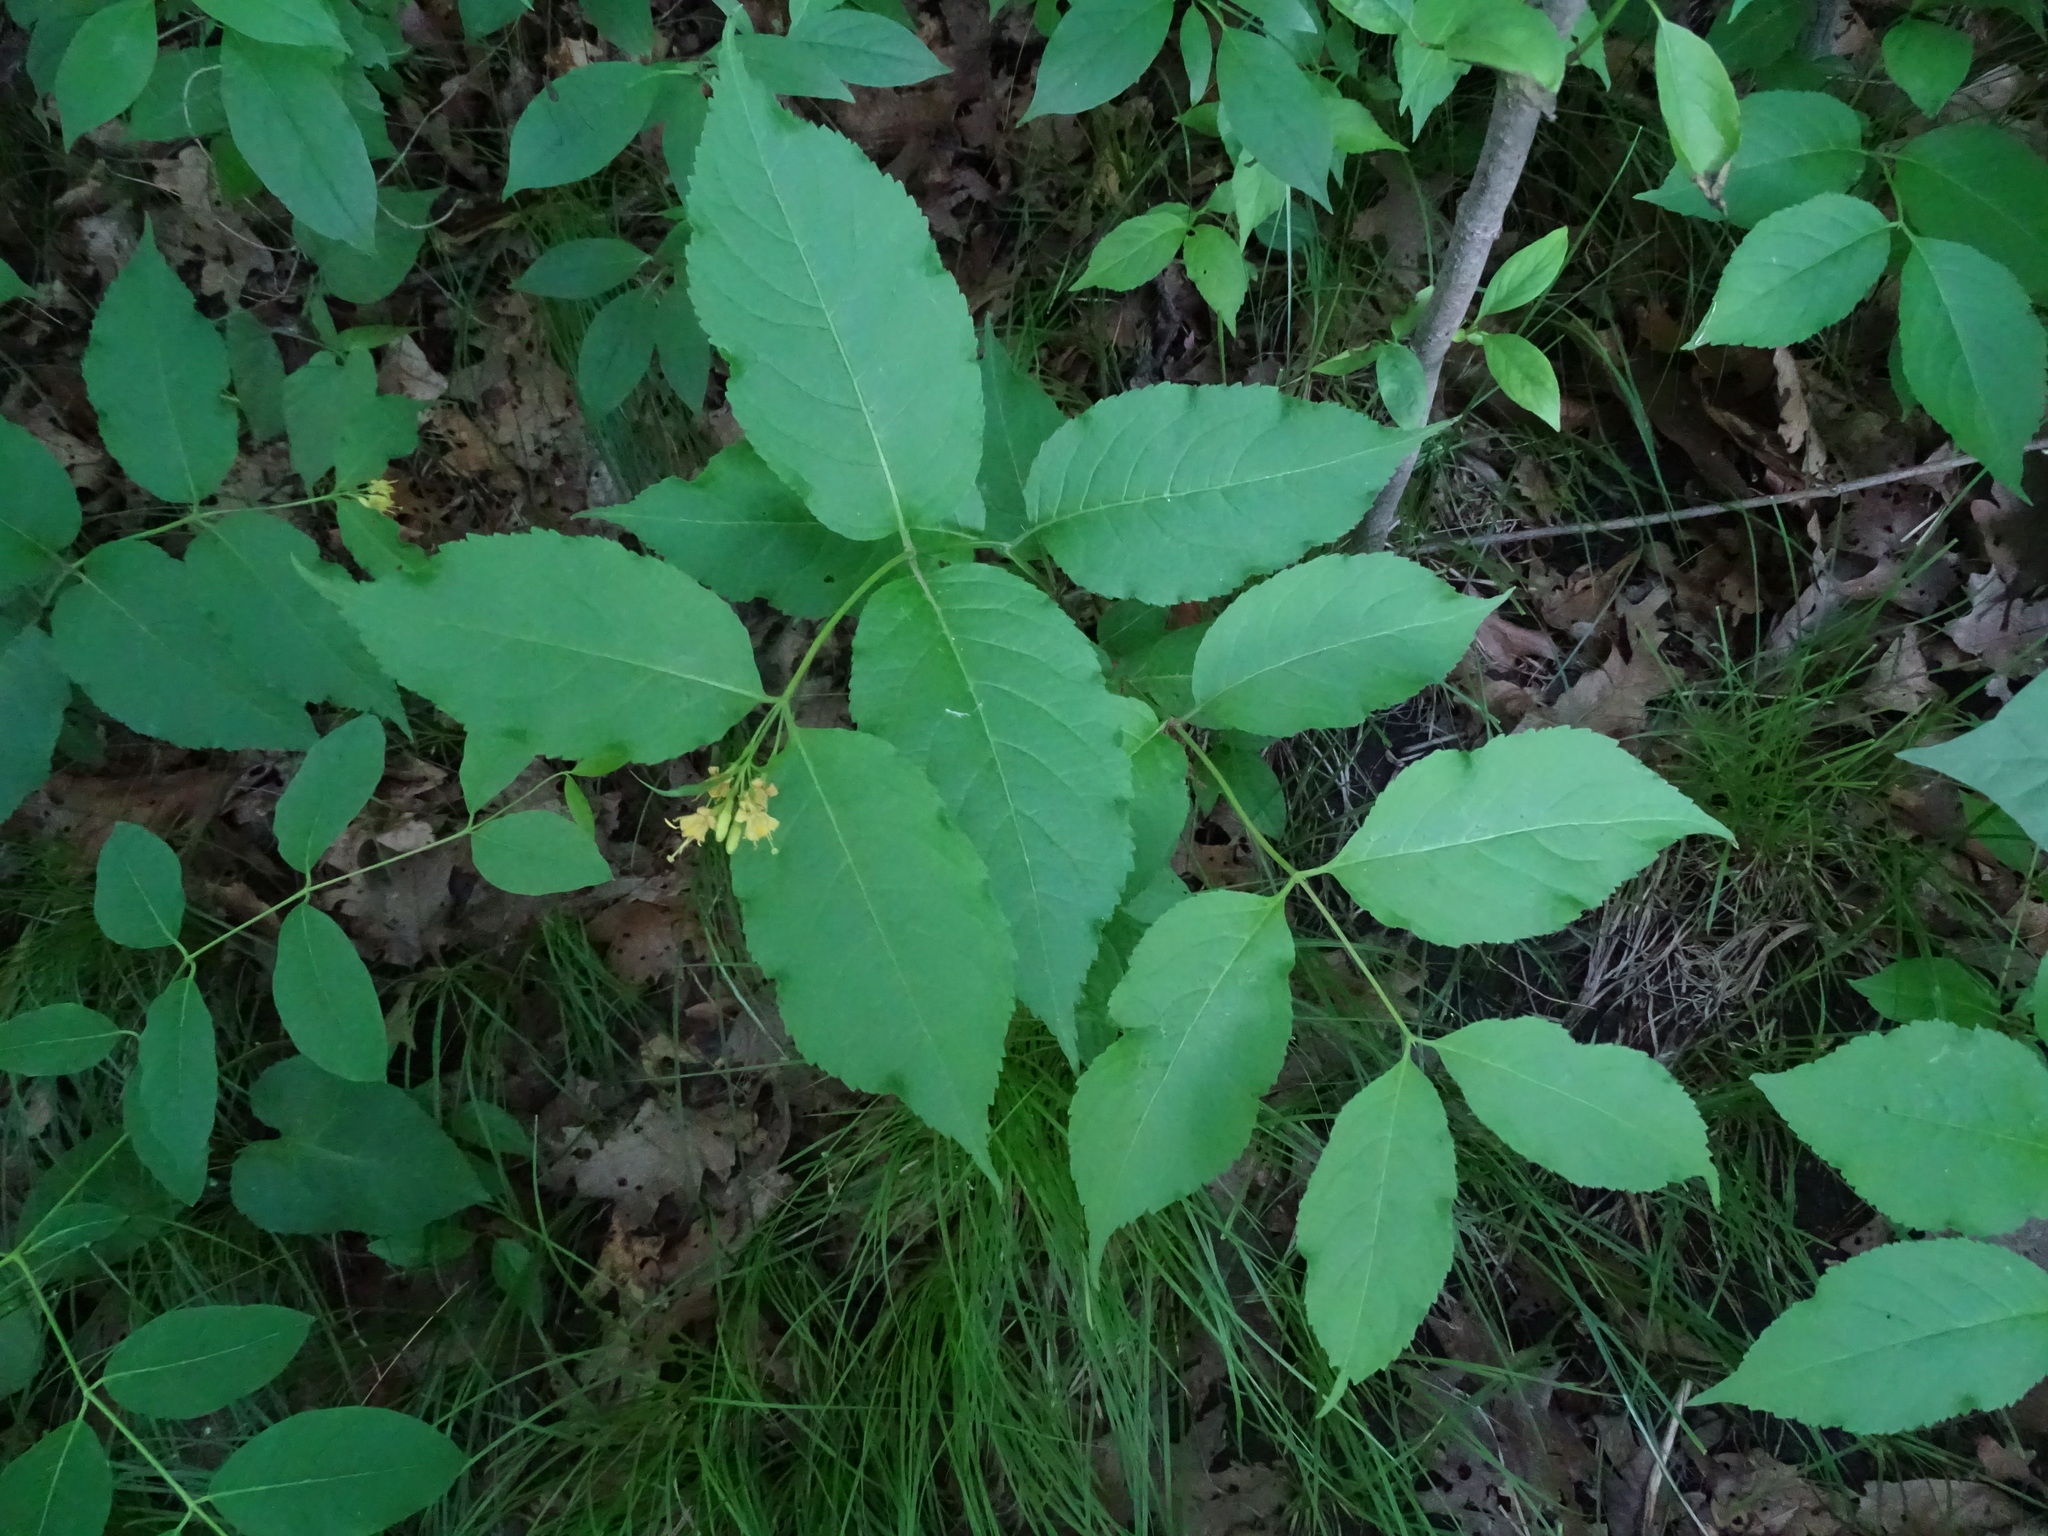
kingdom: Plantae
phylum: Tracheophyta
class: Magnoliopsida
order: Dipsacales
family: Caprifoliaceae
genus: Diervilla
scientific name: Diervilla lonicera
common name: Bush-honeysuckle
